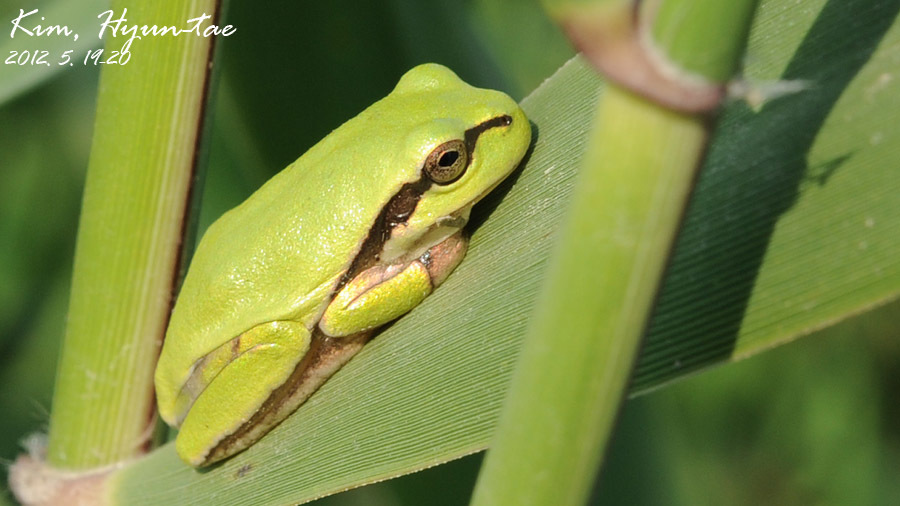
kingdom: Animalia
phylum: Chordata
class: Amphibia
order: Anura
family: Hylidae
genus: Dryophytes
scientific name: Dryophytes japonicus
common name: Japanese treefrog
